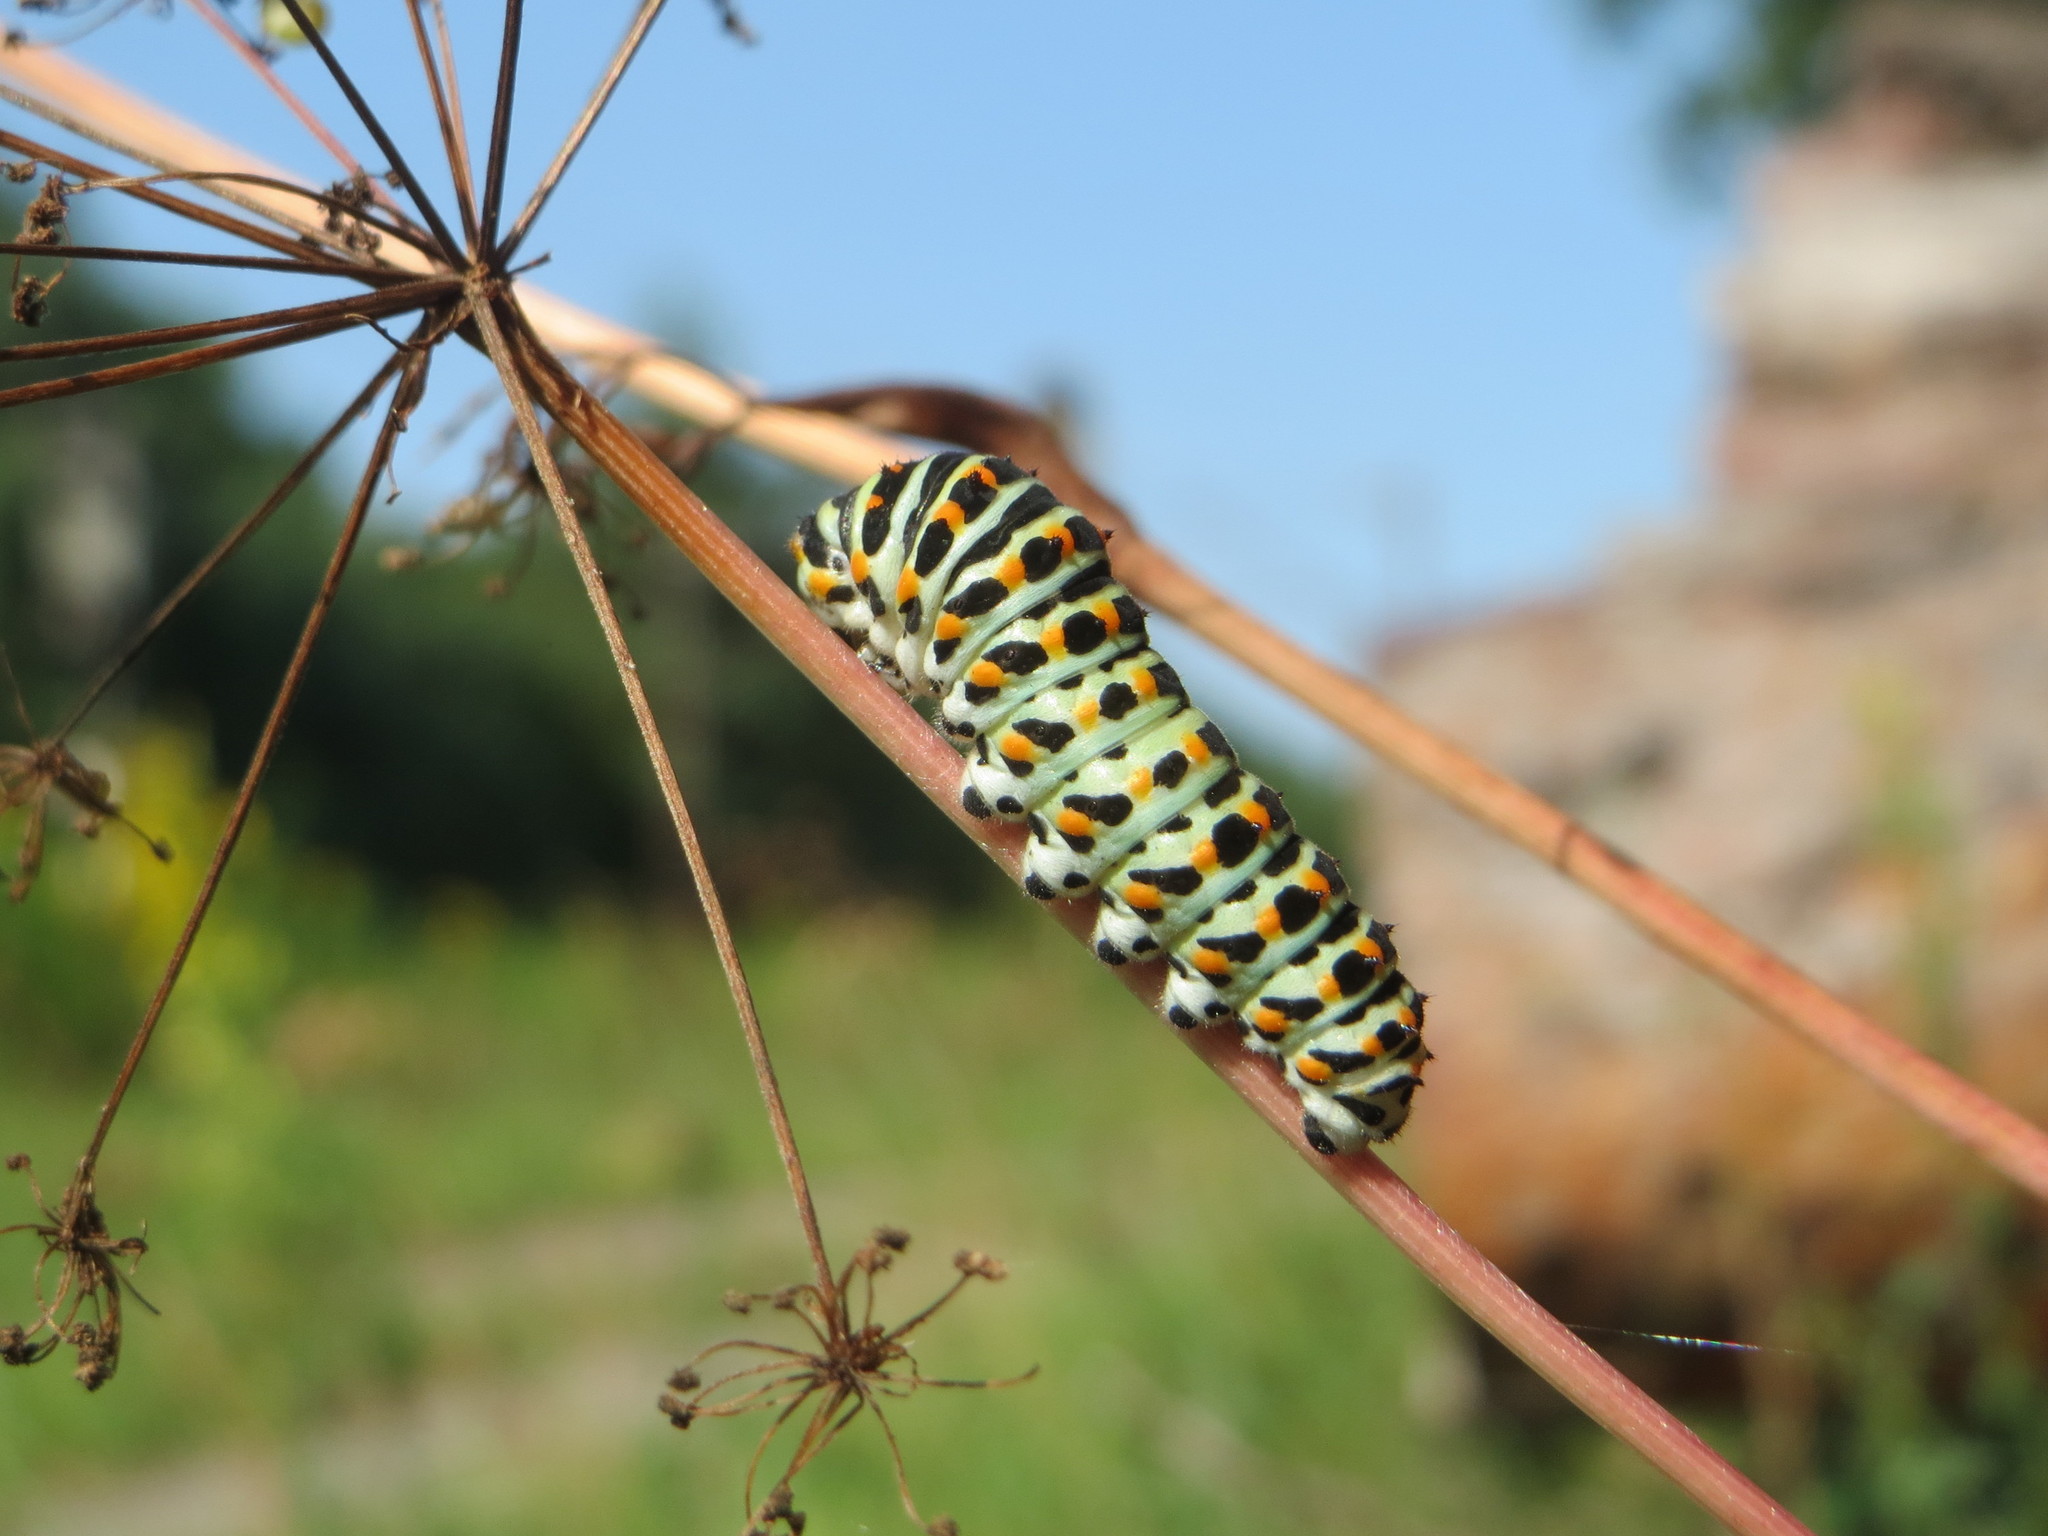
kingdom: Animalia
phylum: Arthropoda
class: Insecta
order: Lepidoptera
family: Papilionidae
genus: Papilio
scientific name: Papilio machaon
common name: Swallowtail
